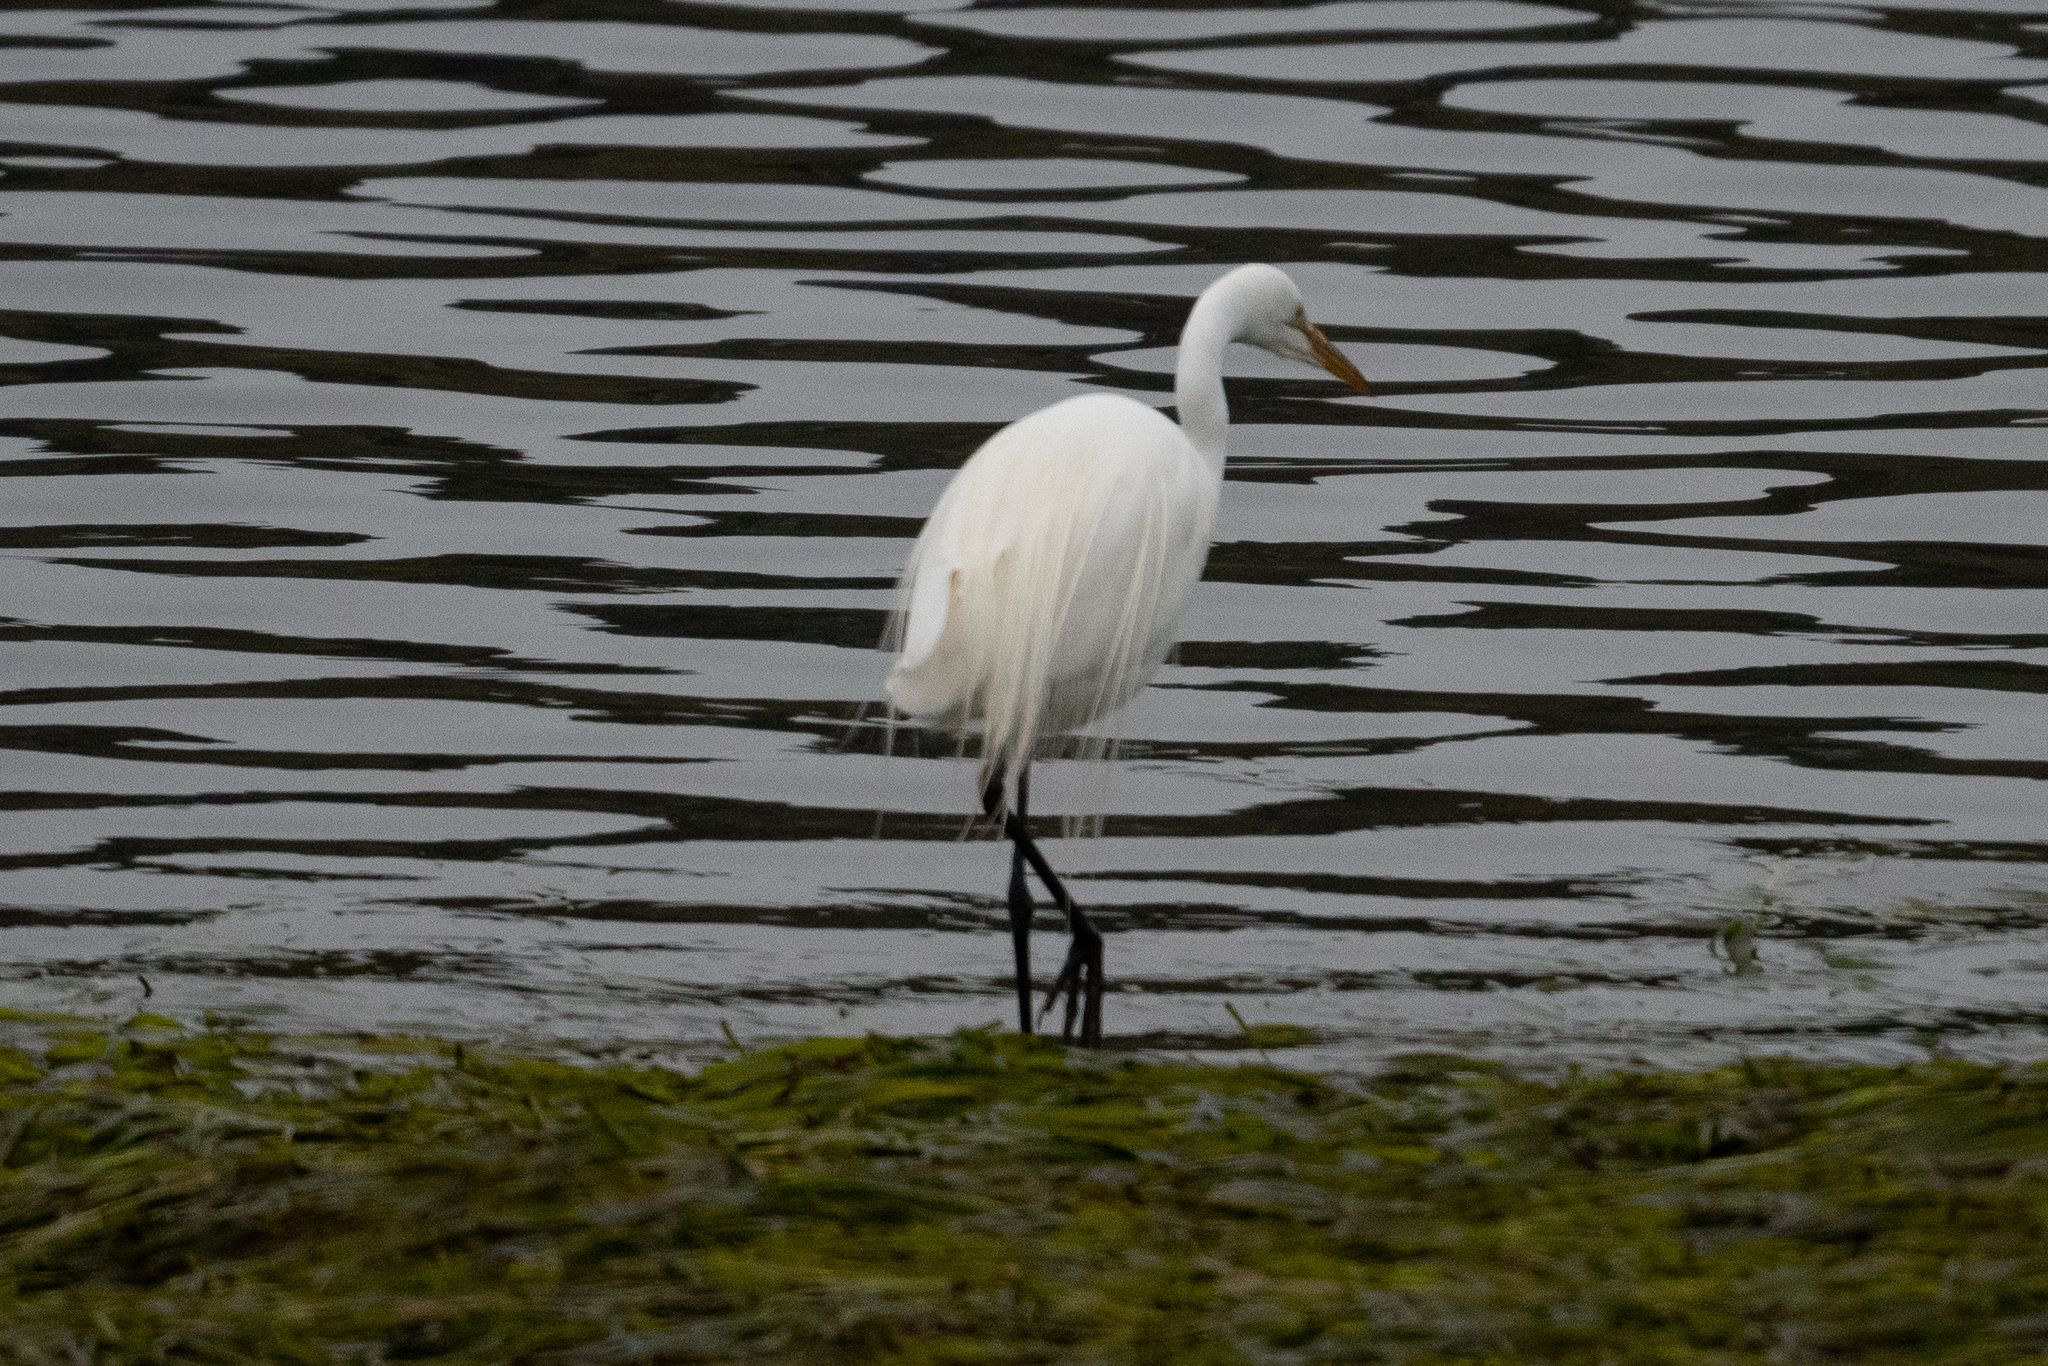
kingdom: Animalia
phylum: Chordata
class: Aves
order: Pelecaniformes
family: Ardeidae
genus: Ardea
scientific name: Ardea alba
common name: Great egret
